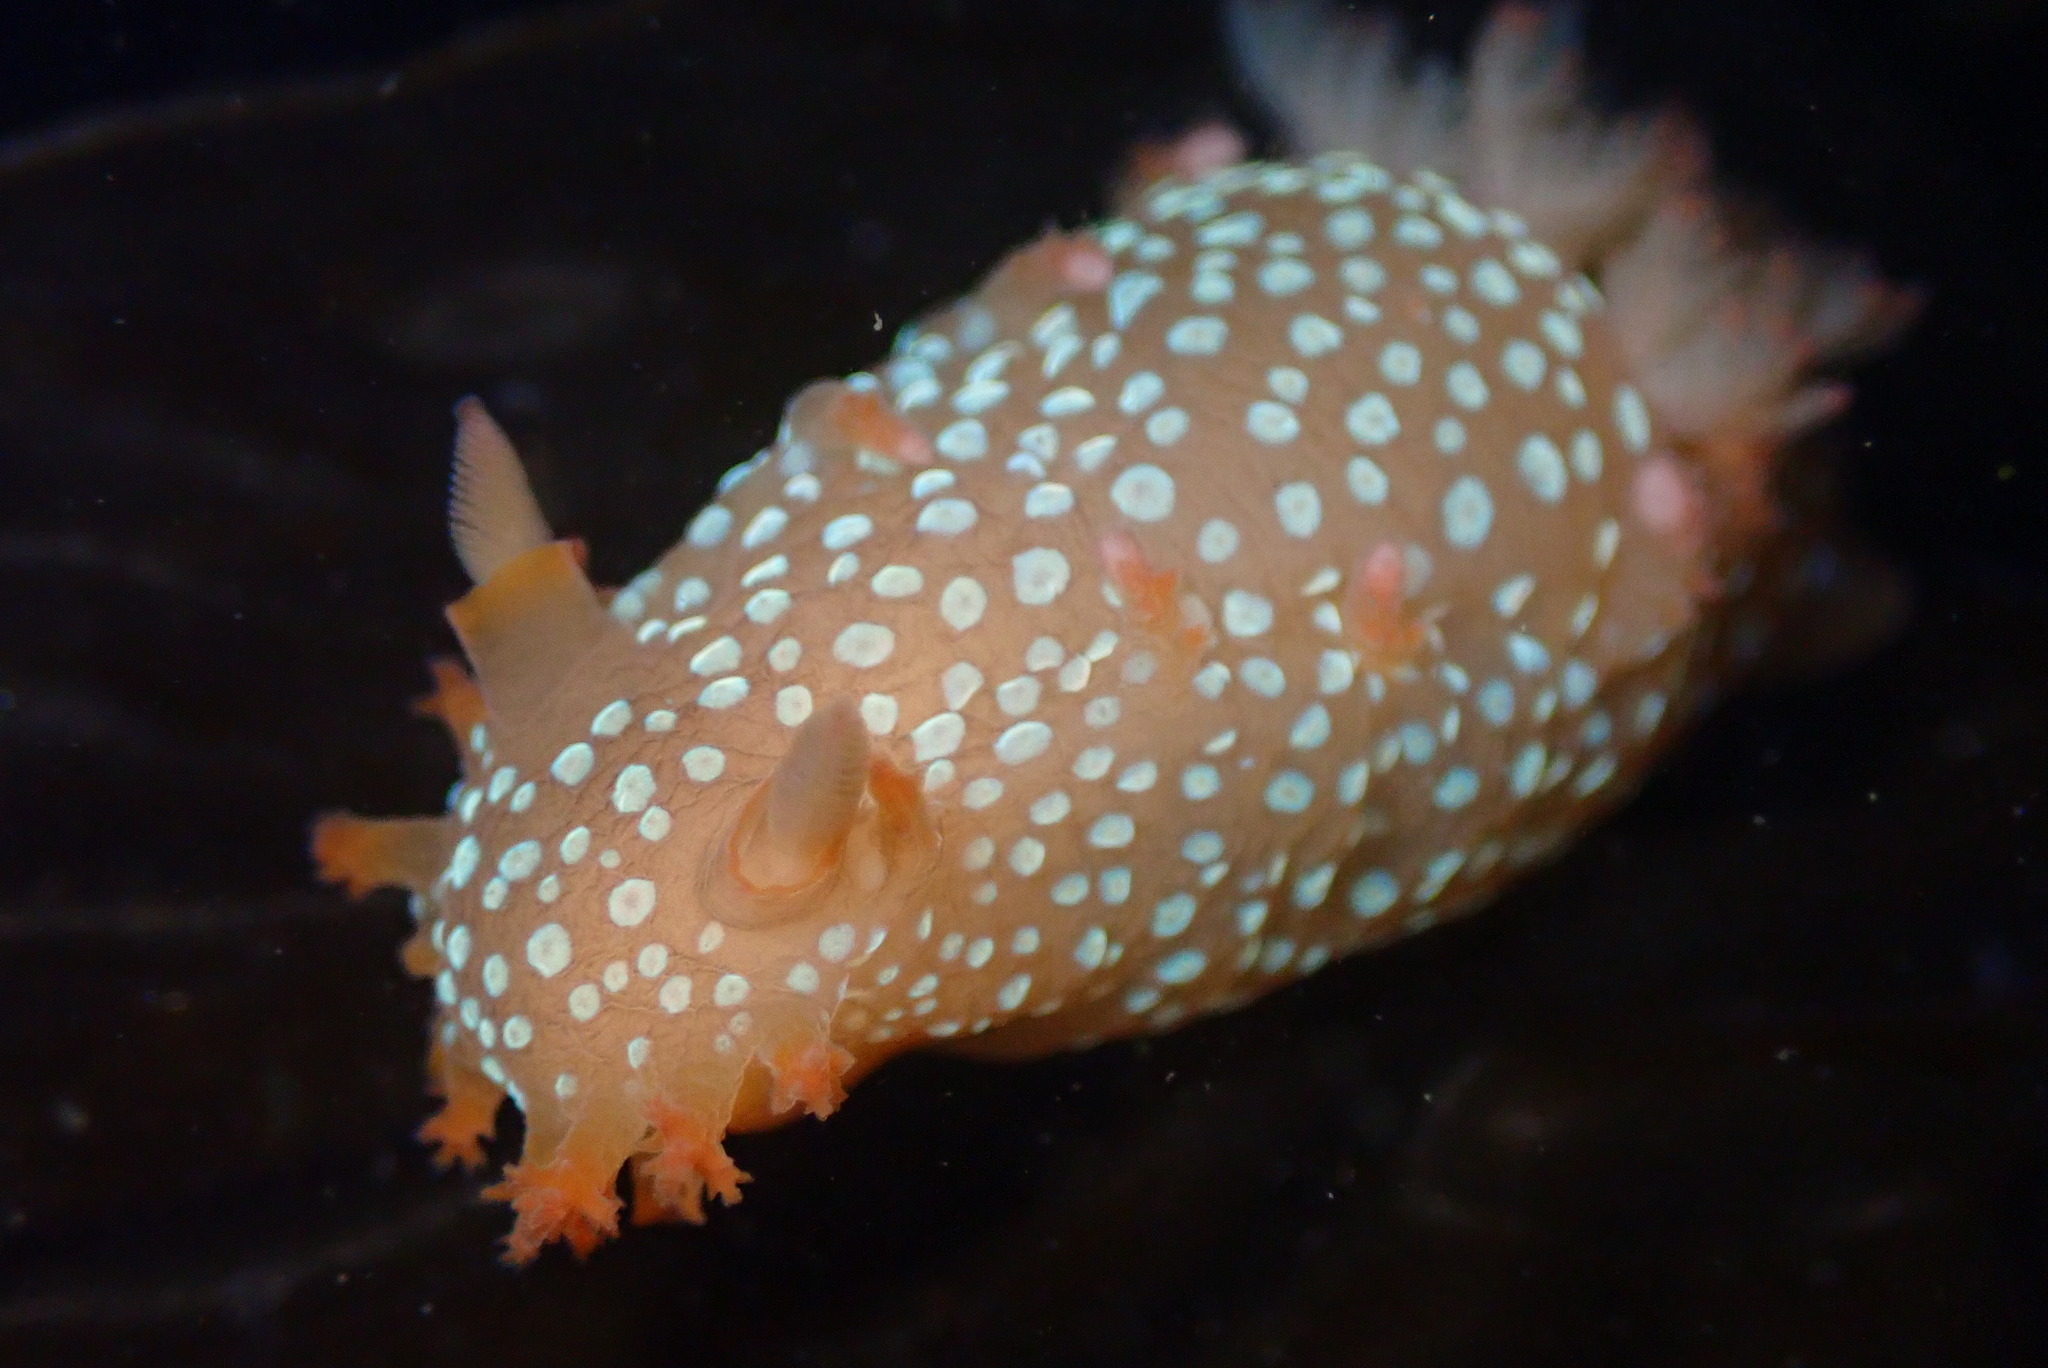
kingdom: Animalia
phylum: Mollusca
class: Gastropoda
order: Nudibranchia
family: Polyceridae
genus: Triopha
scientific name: Triopha maculata
